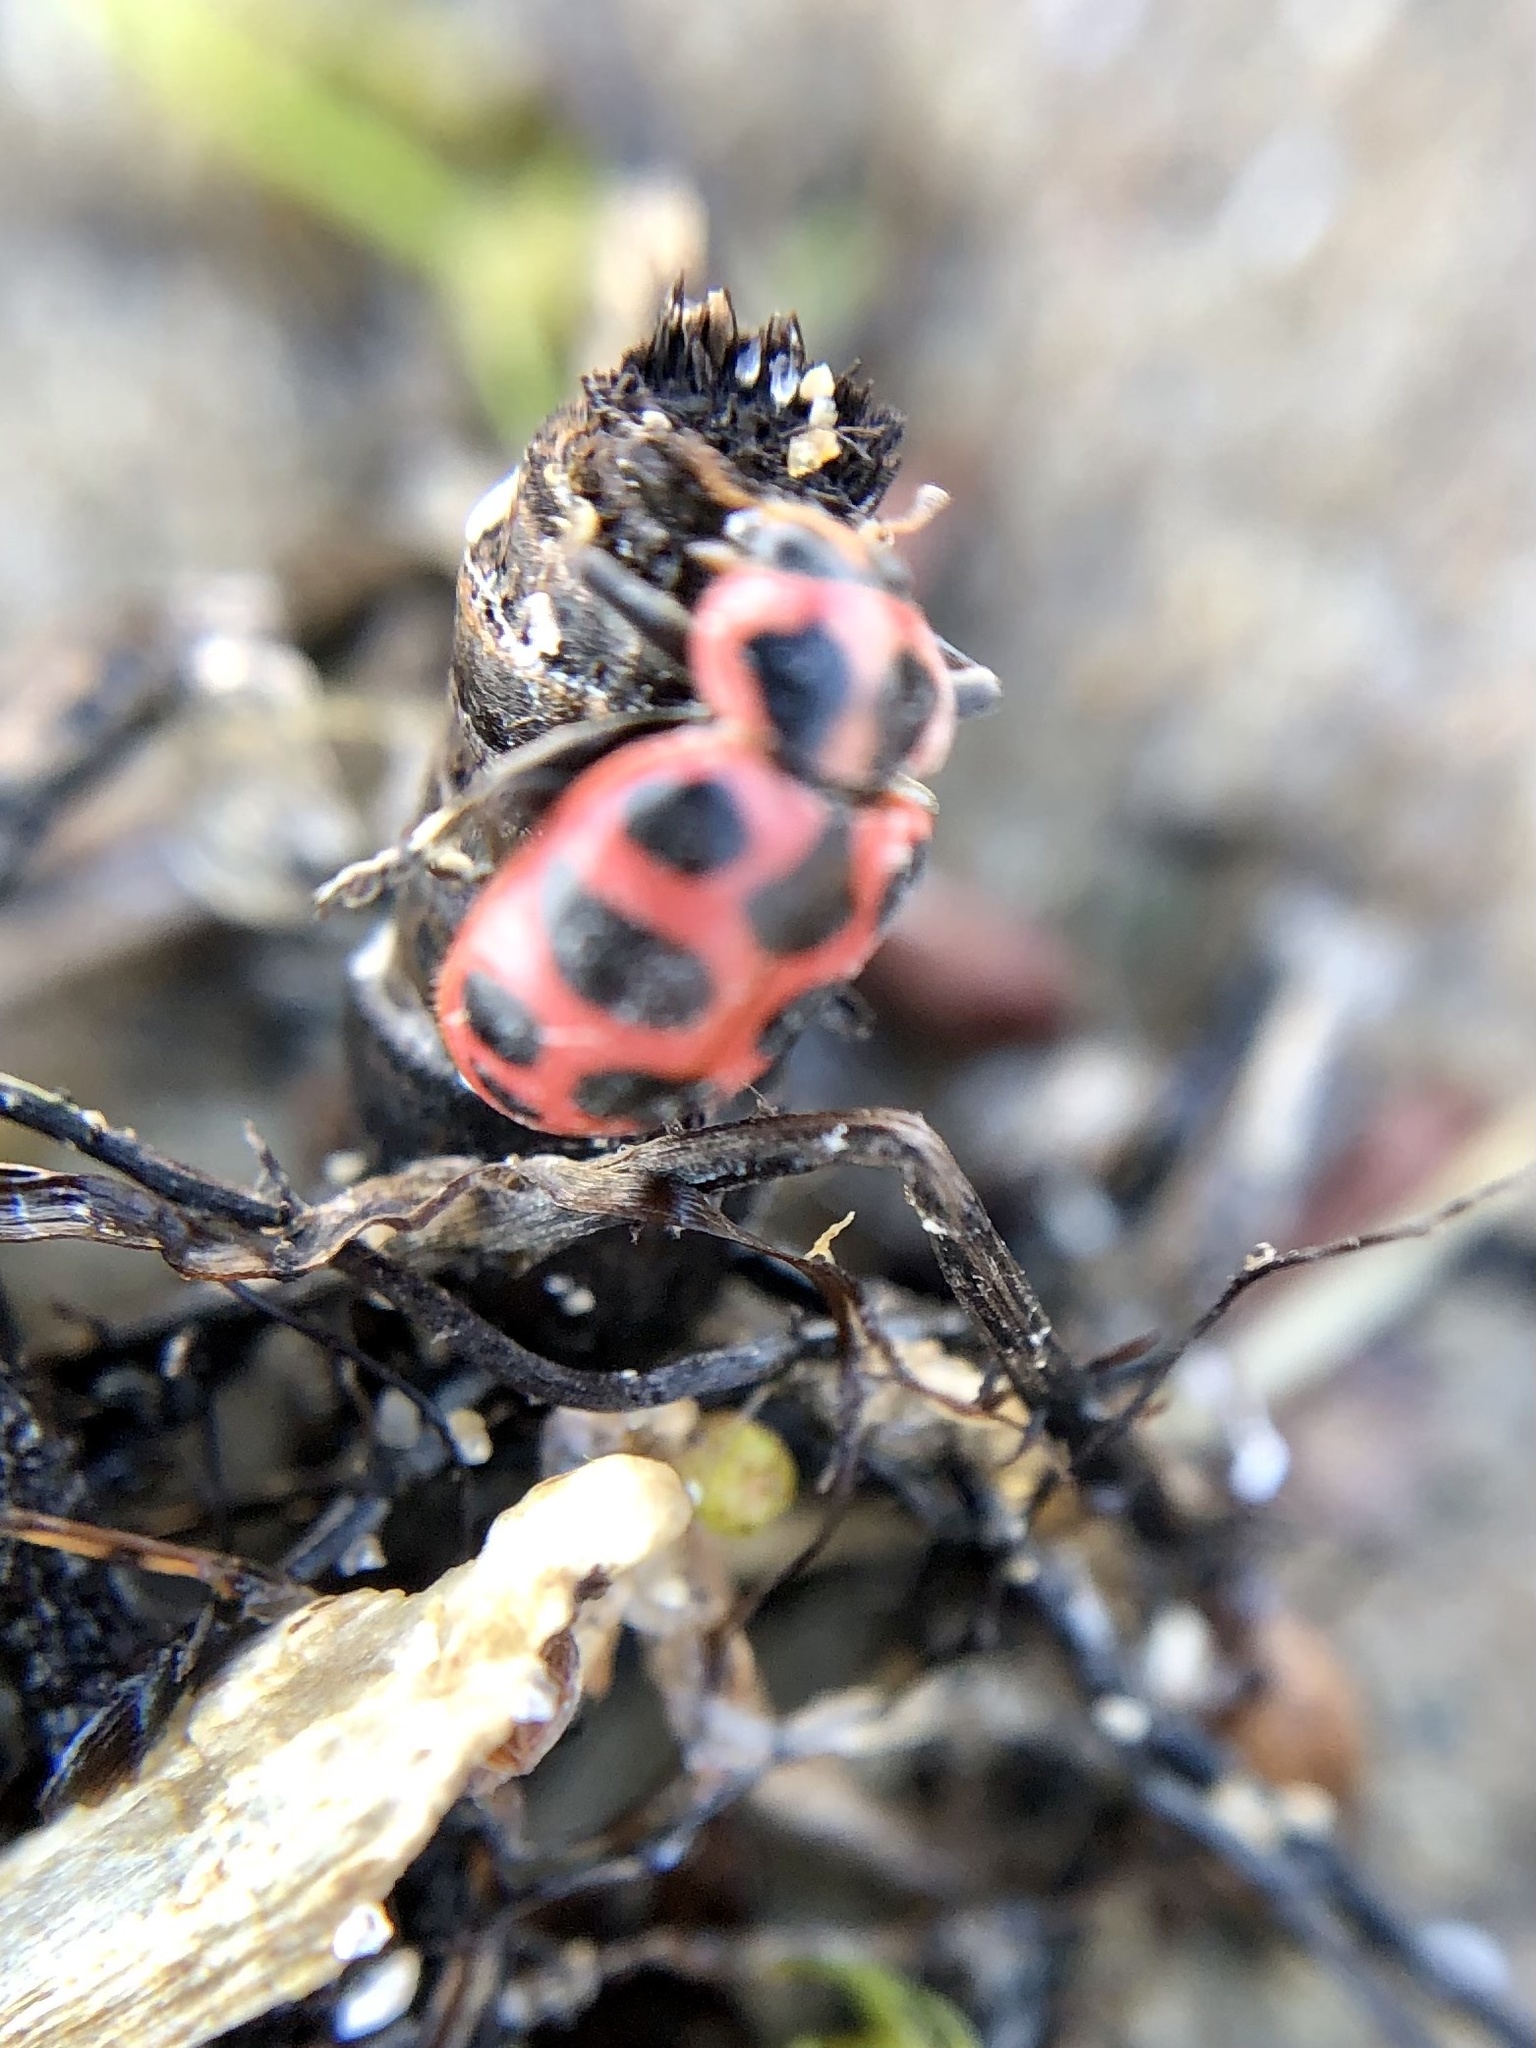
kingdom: Animalia
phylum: Arthropoda
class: Insecta
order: Coleoptera
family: Coccinellidae
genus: Coleomegilla
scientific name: Coleomegilla maculata
